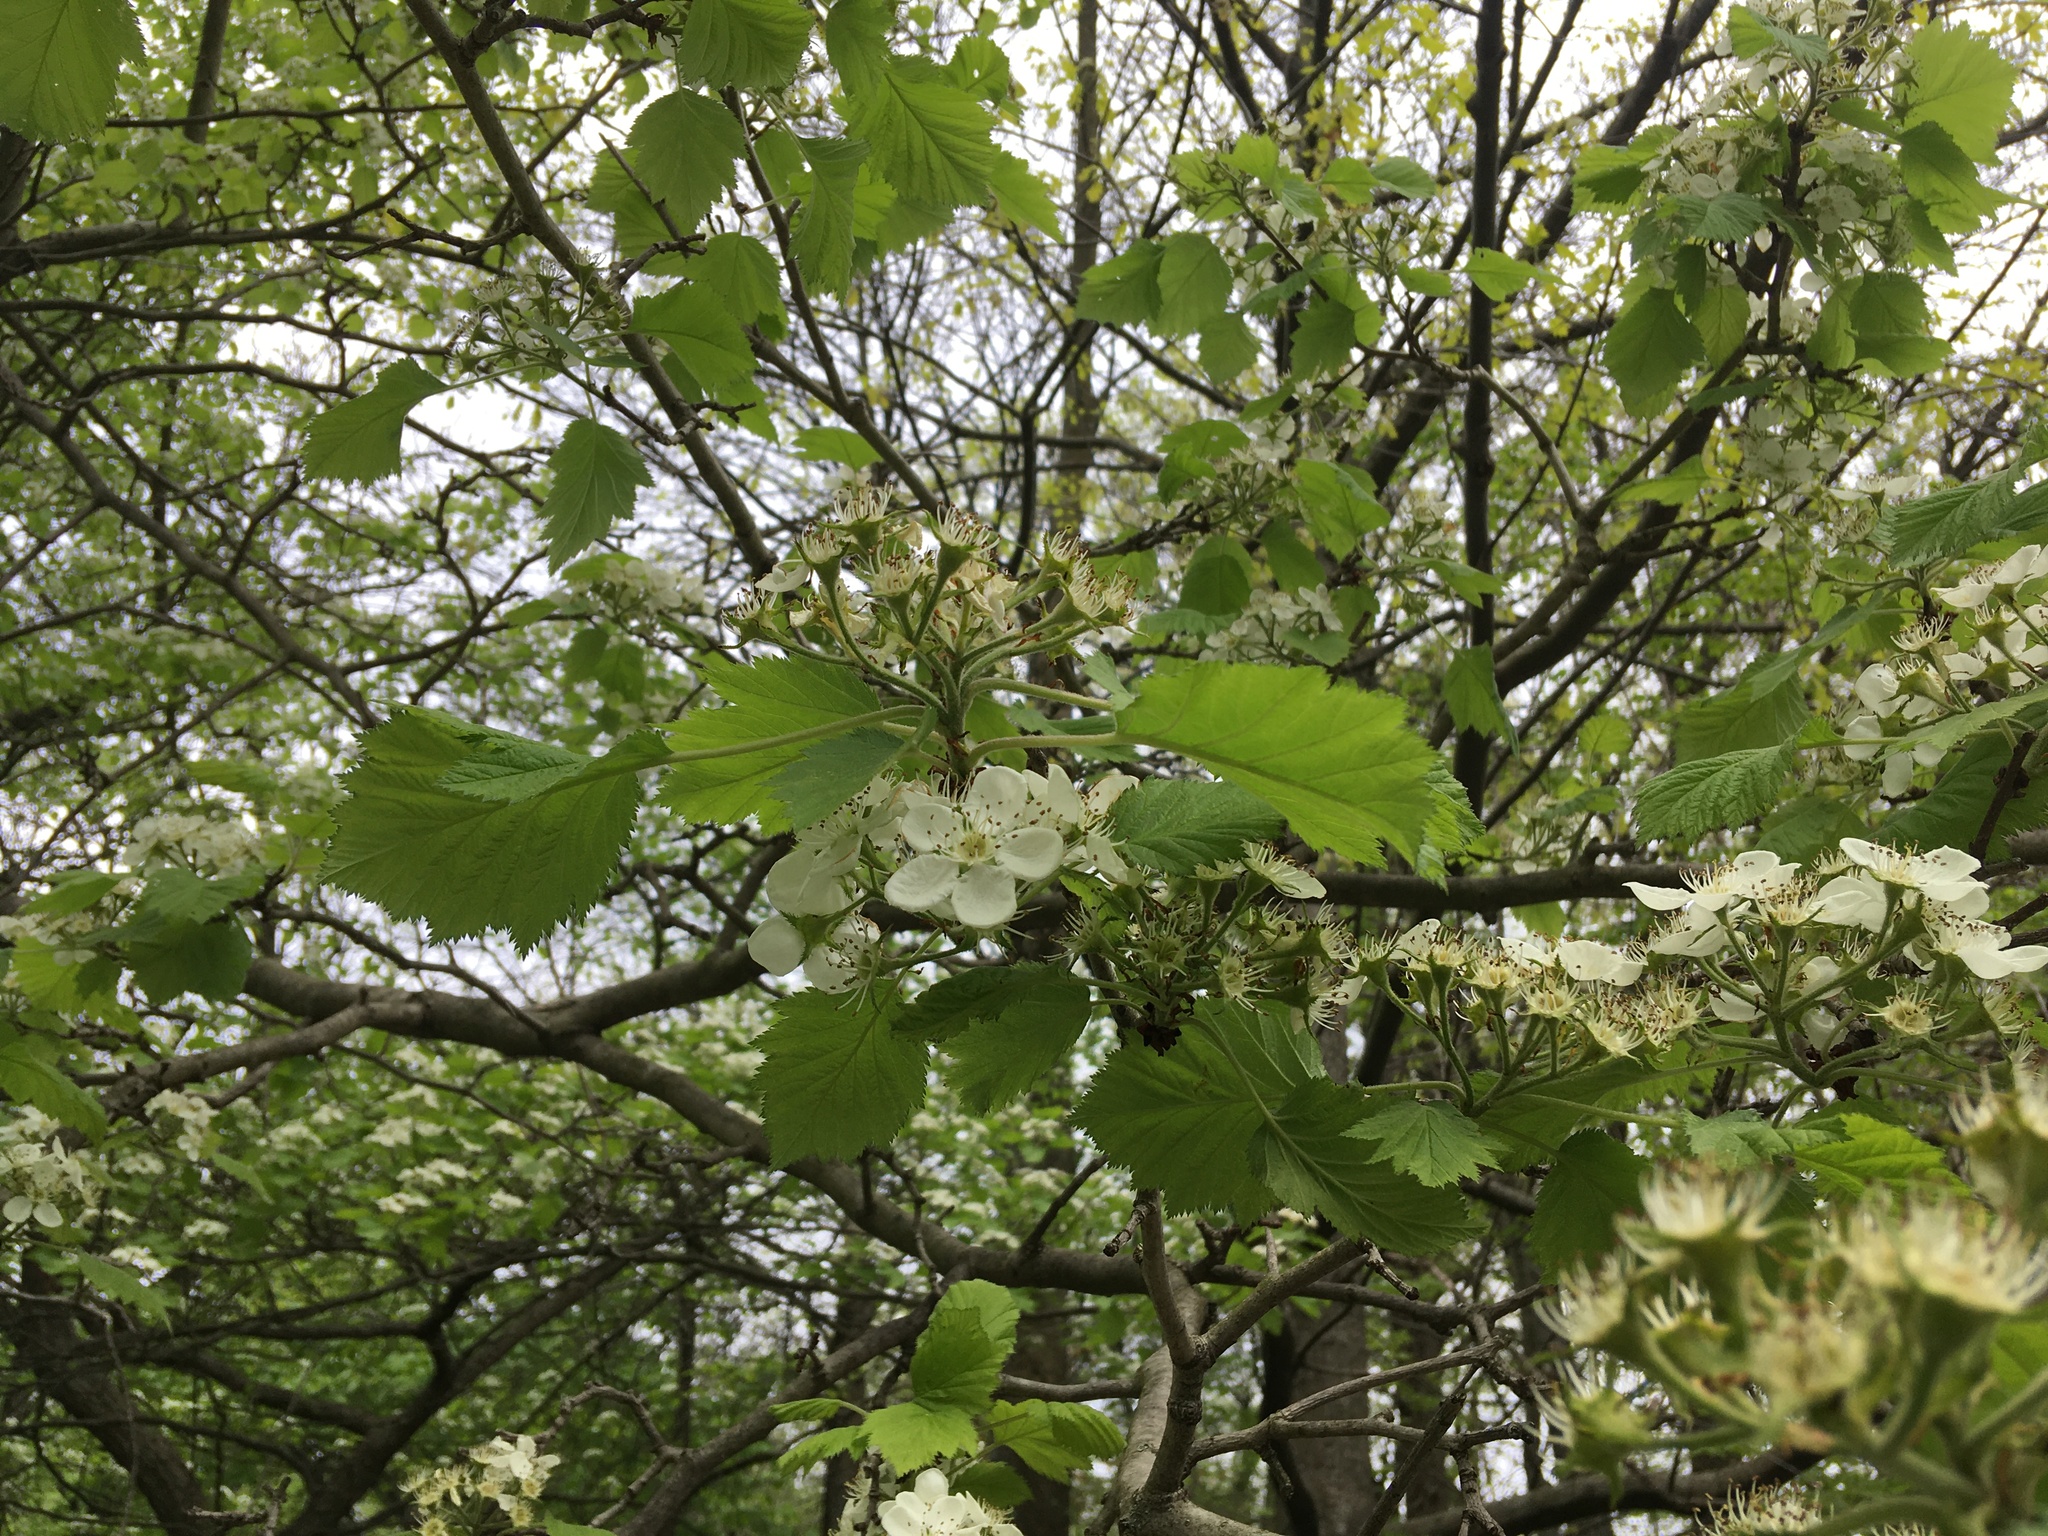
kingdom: Plantae
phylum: Tracheophyta
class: Magnoliopsida
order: Rosales
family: Rosaceae
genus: Crataegus
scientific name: Crataegus mollis
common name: Downy hawthorn
